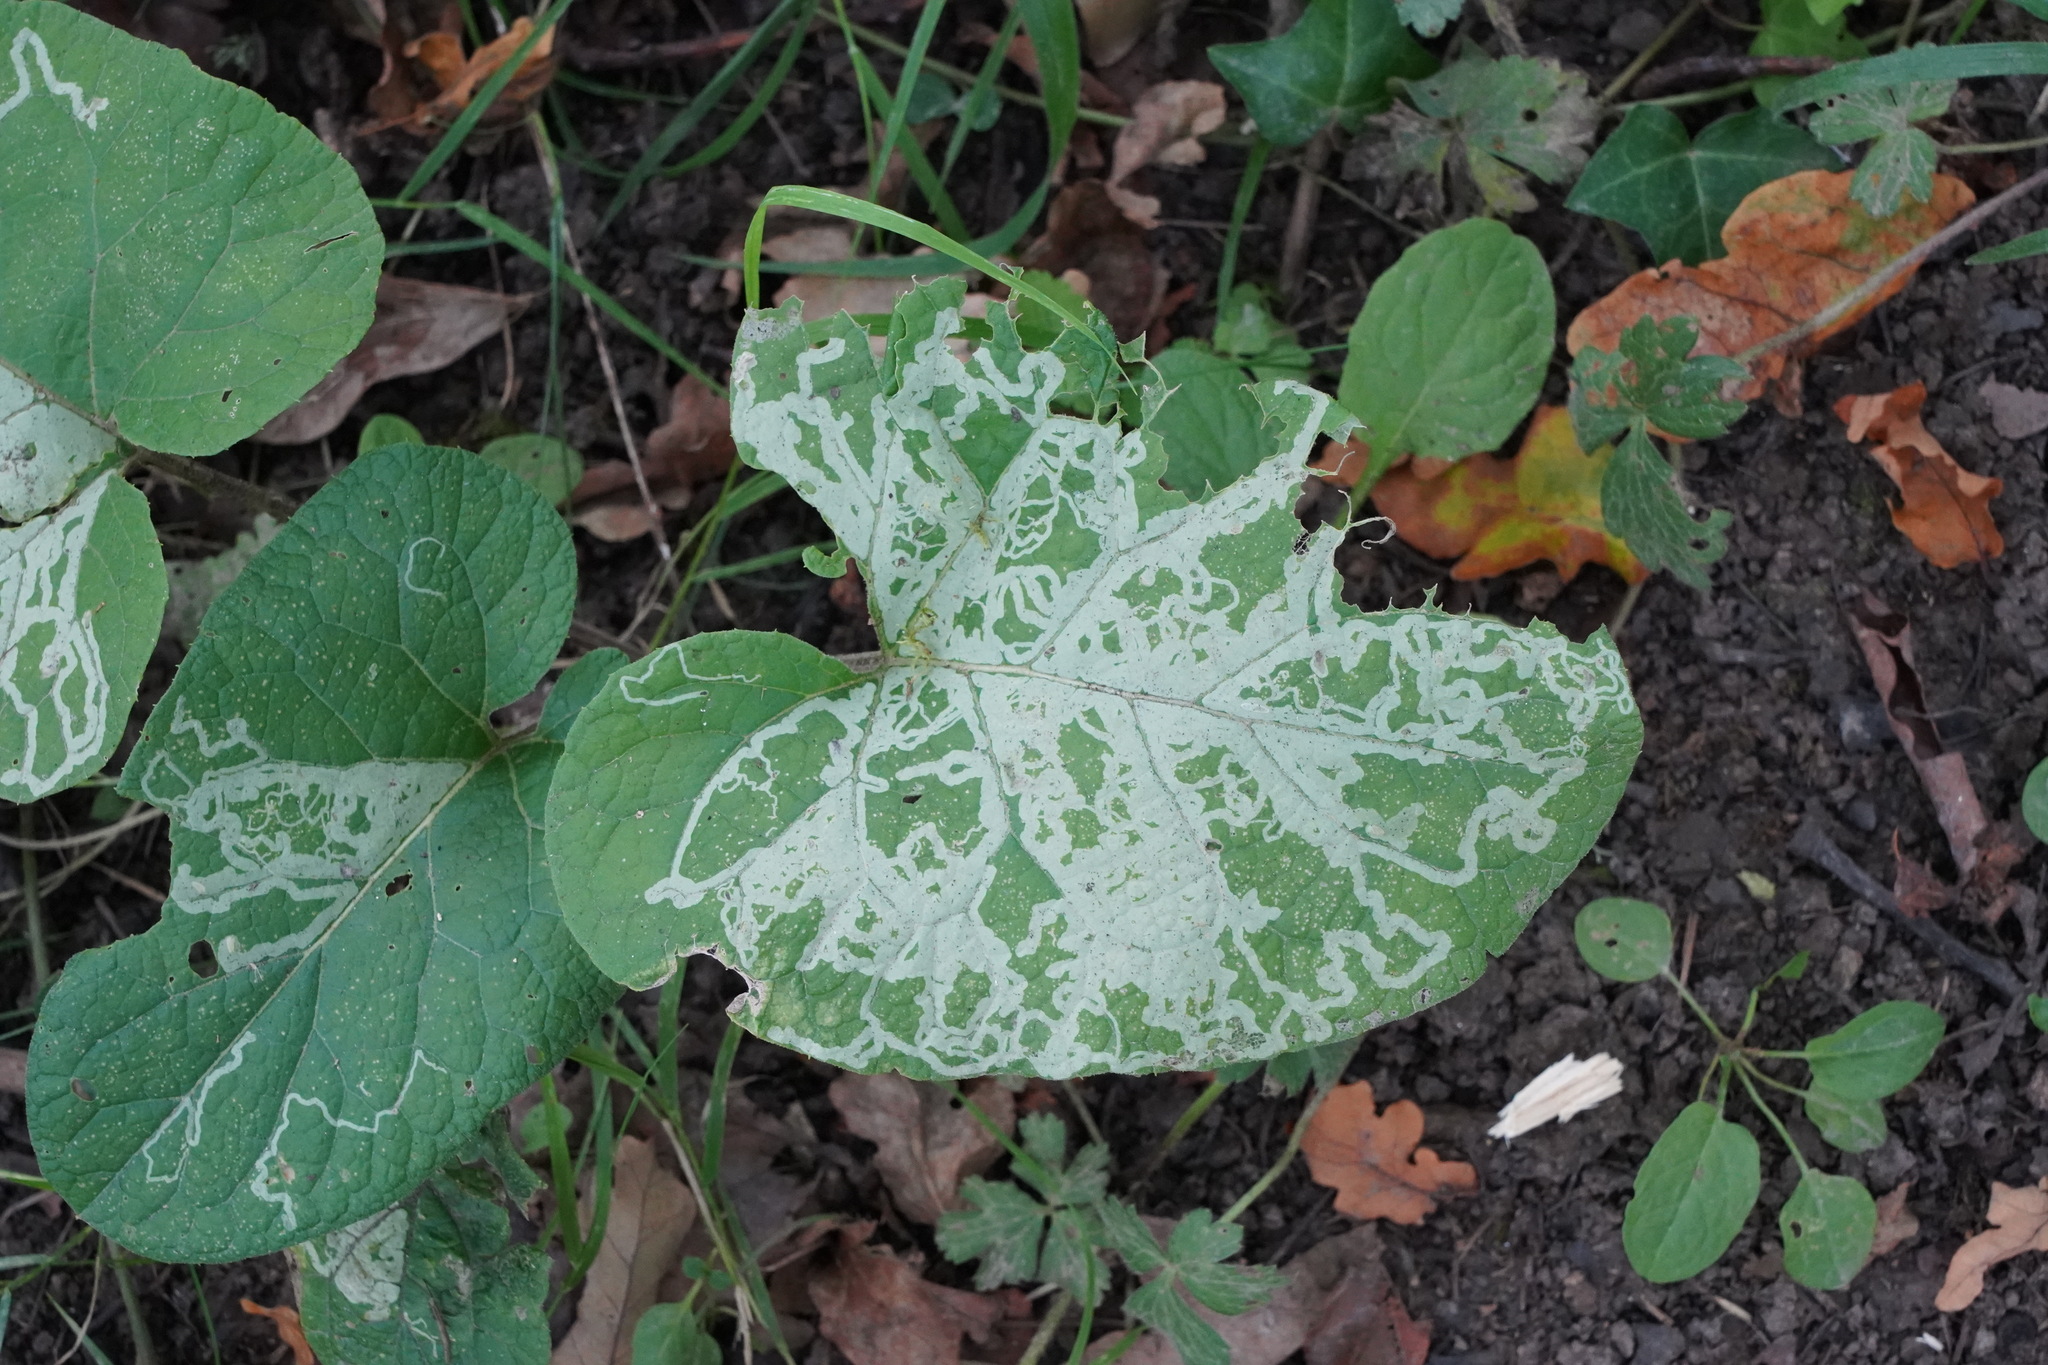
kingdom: Animalia
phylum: Arthropoda
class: Insecta
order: Diptera
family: Agromyzidae
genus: Phytomyza
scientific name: Phytomyza lappae
